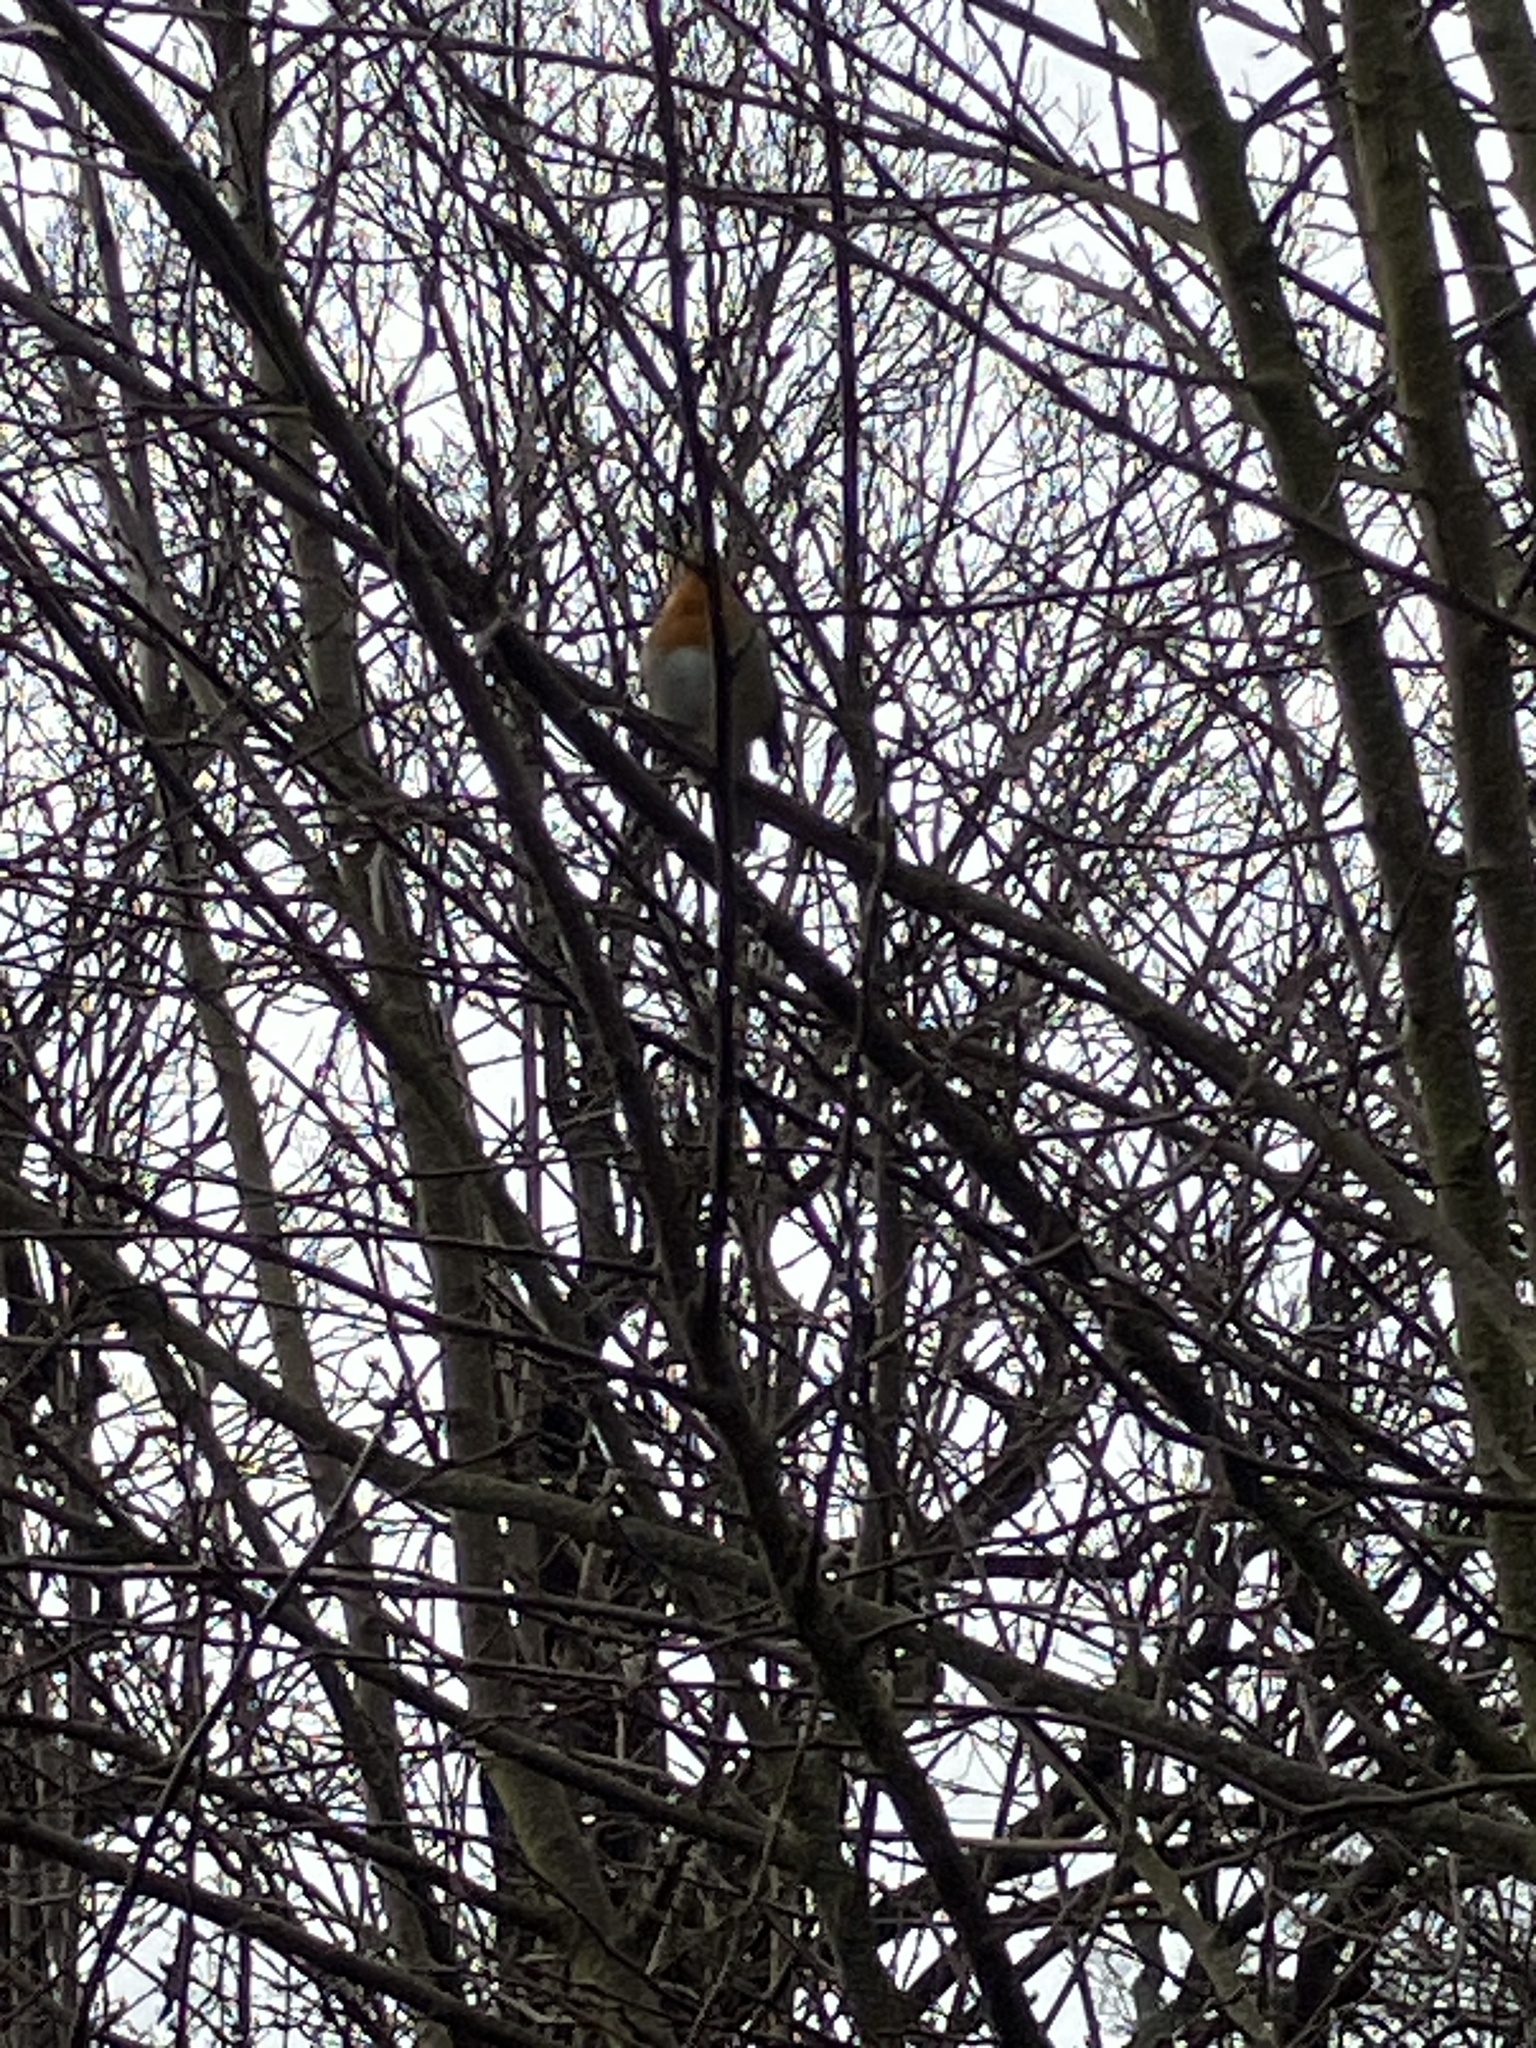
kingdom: Animalia
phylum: Chordata
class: Aves
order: Passeriformes
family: Muscicapidae
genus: Erithacus
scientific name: Erithacus rubecula
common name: European robin
